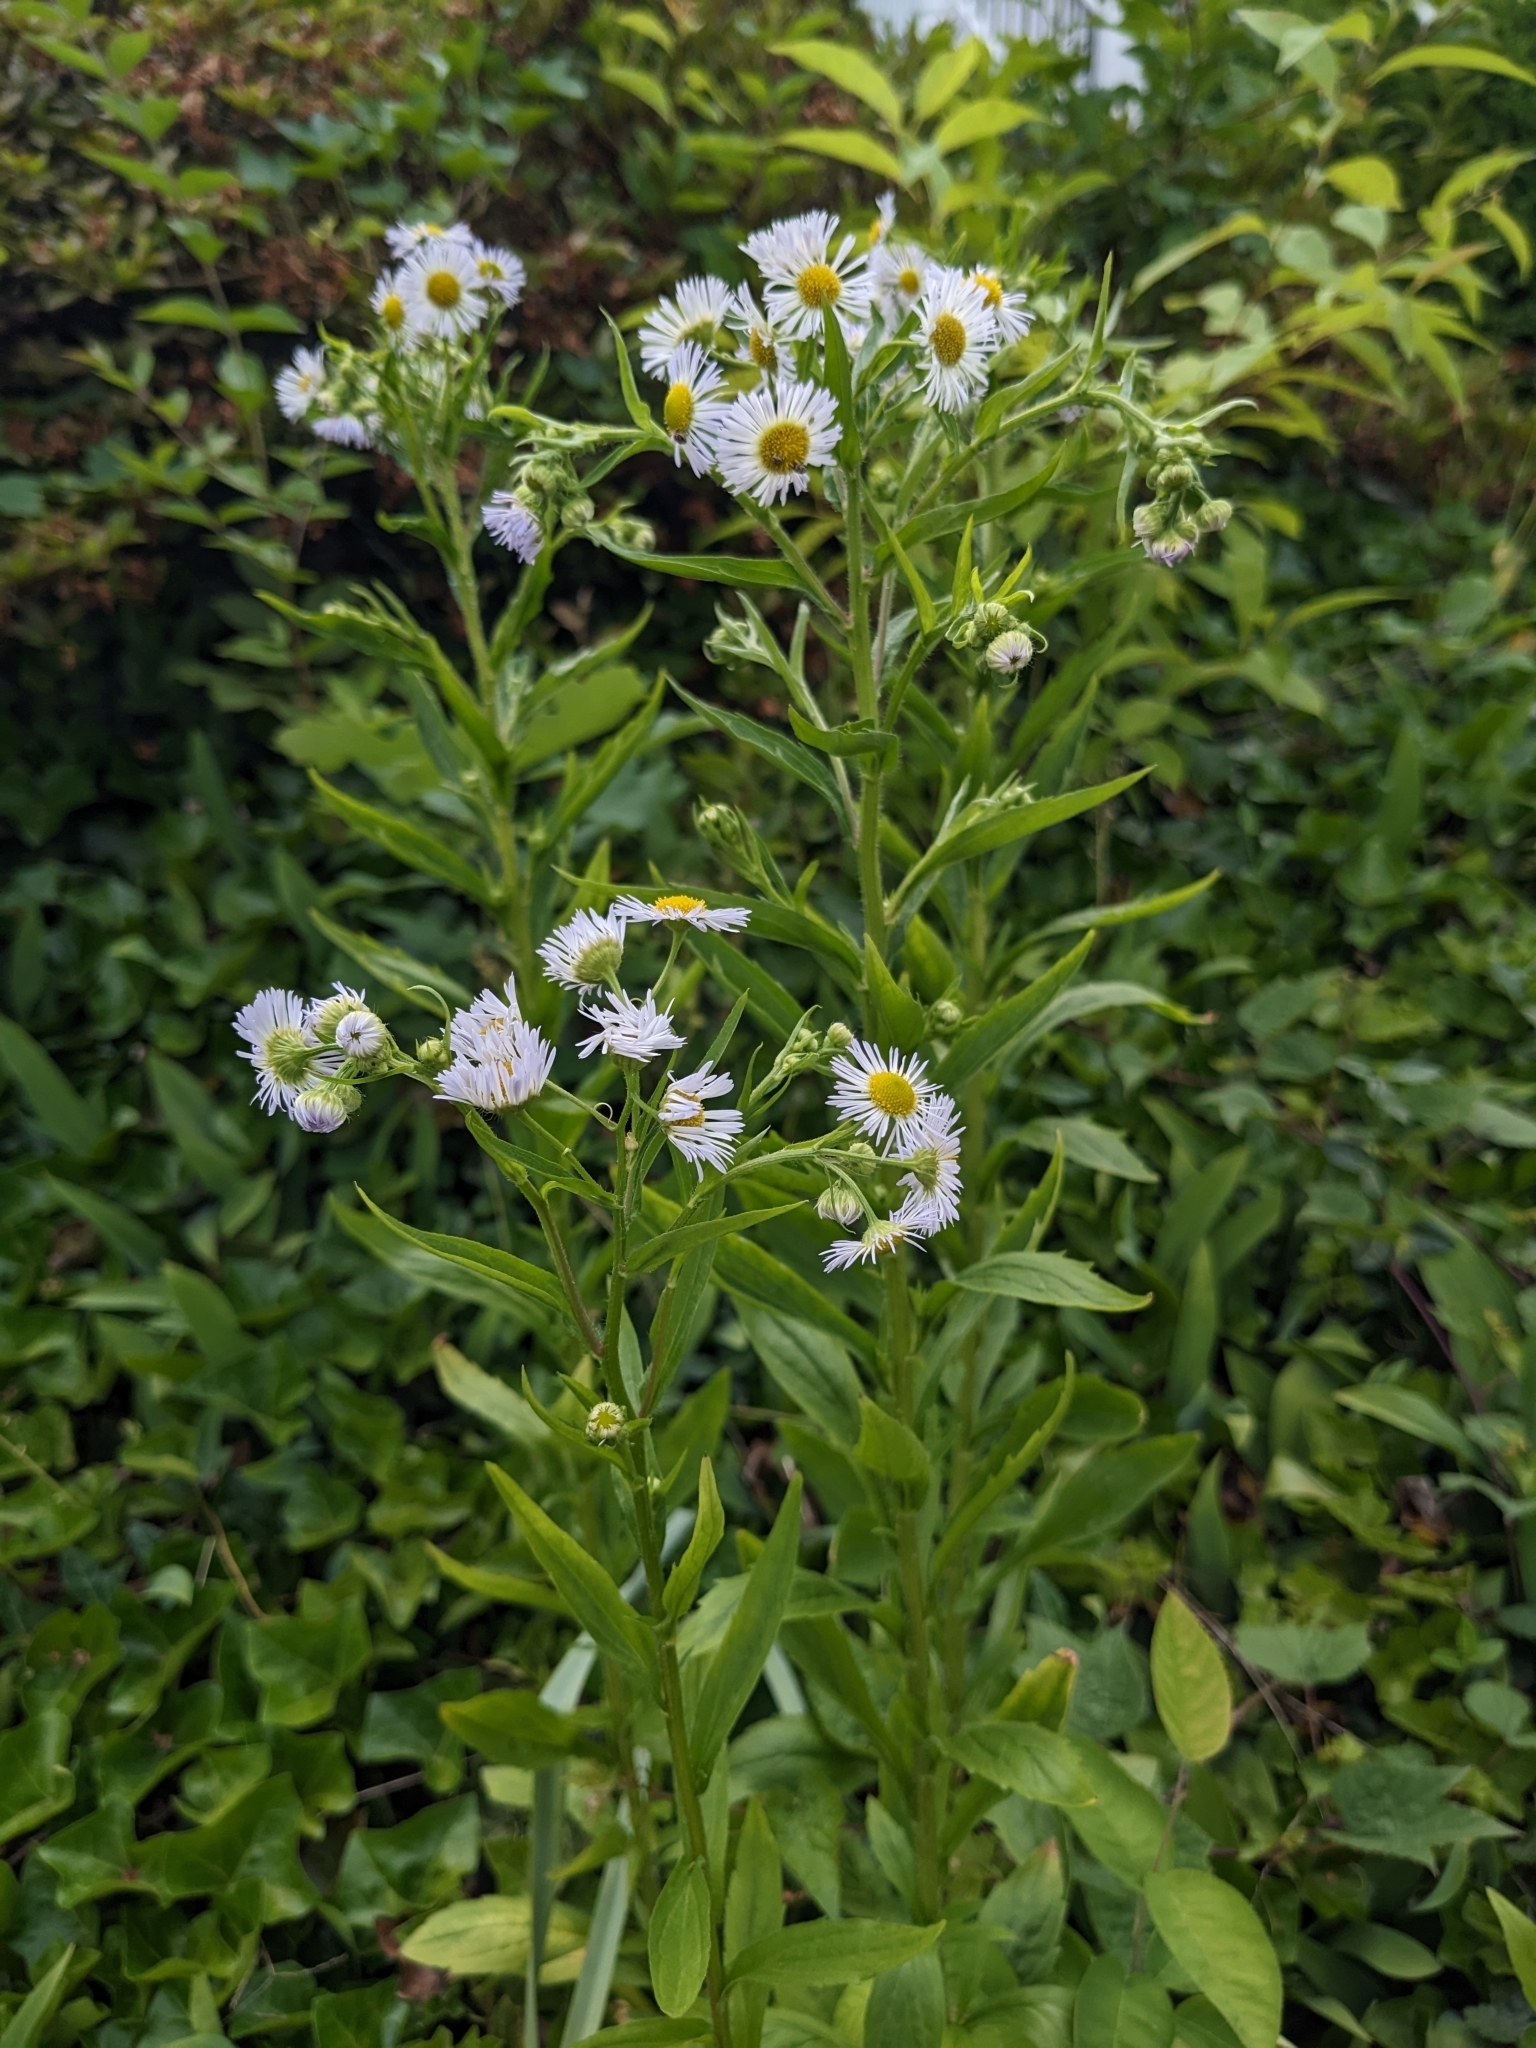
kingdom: Plantae
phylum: Tracheophyta
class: Magnoliopsida
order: Fabales
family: Fabaceae
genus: Trifolium
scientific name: Trifolium repens
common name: White clover
